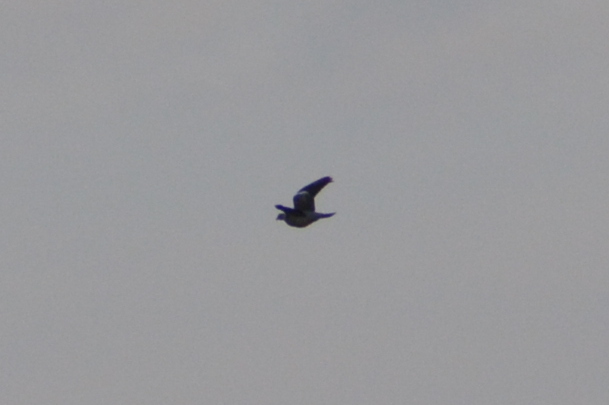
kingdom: Animalia
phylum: Chordata
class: Aves
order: Columbiformes
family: Columbidae
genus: Columba
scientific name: Columba palumbus
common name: Common wood pigeon
